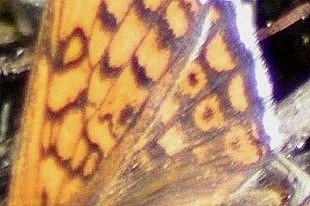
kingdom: Animalia
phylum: Arthropoda
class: Insecta
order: Lepidoptera
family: Nymphalidae
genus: Melitaea
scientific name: Melitaea cinxia
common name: Glanville fritillary
